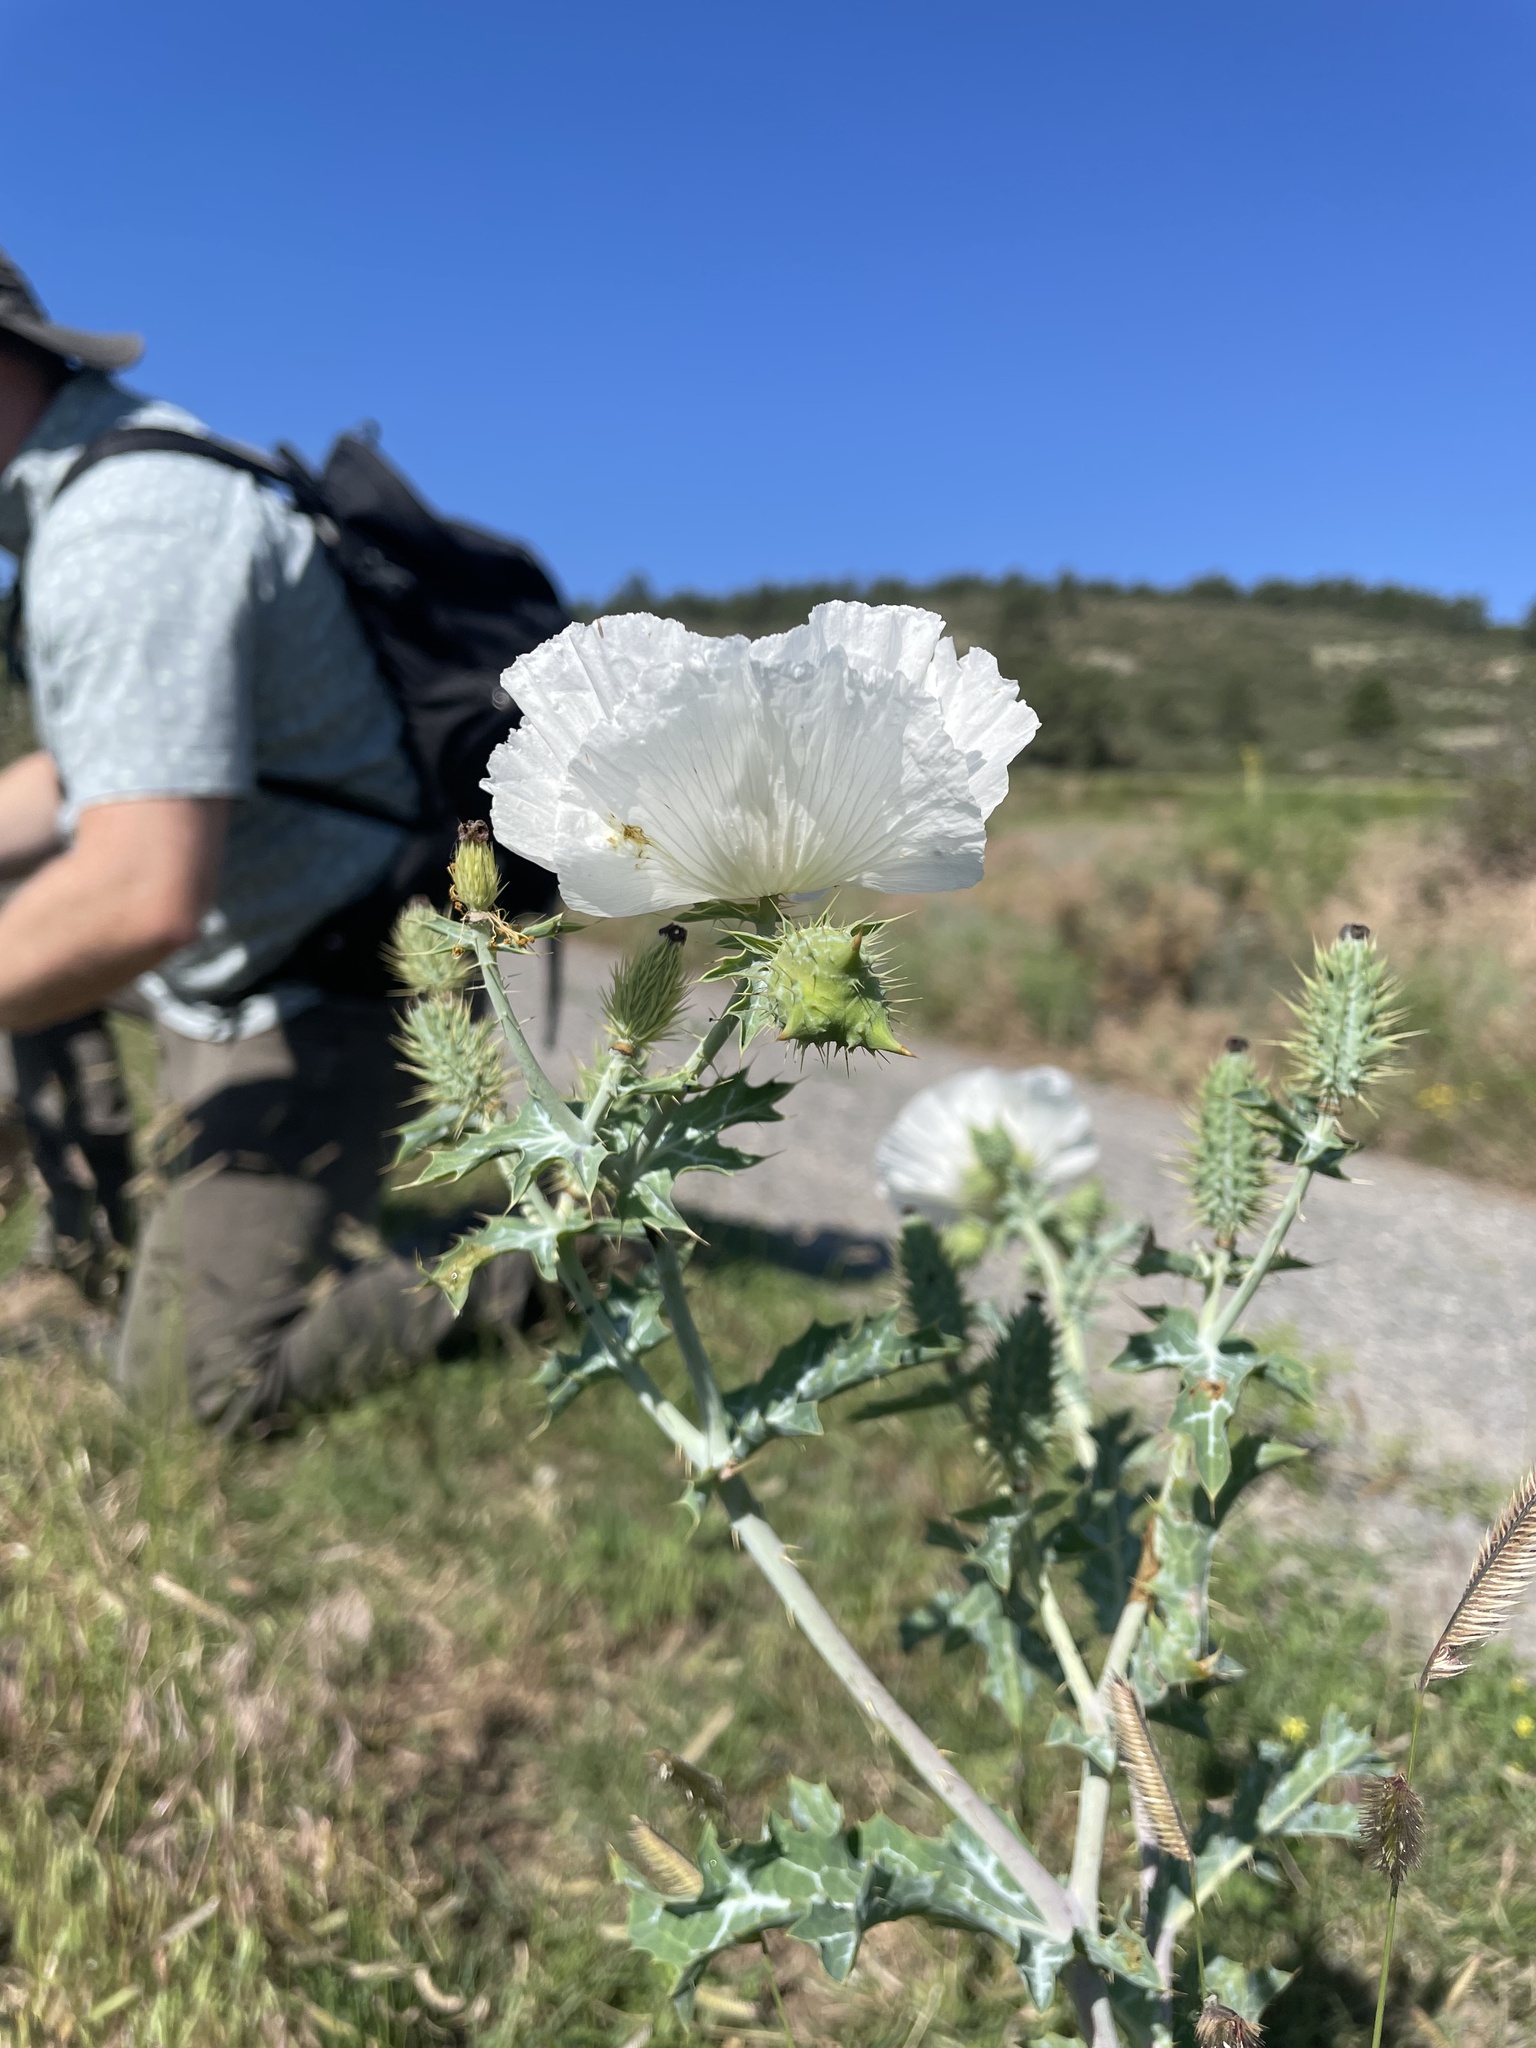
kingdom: Plantae
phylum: Tracheophyta
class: Magnoliopsida
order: Ranunculales
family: Papaveraceae
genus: Argemone
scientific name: Argemone polyanthemos
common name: Plains prickly-poppy
